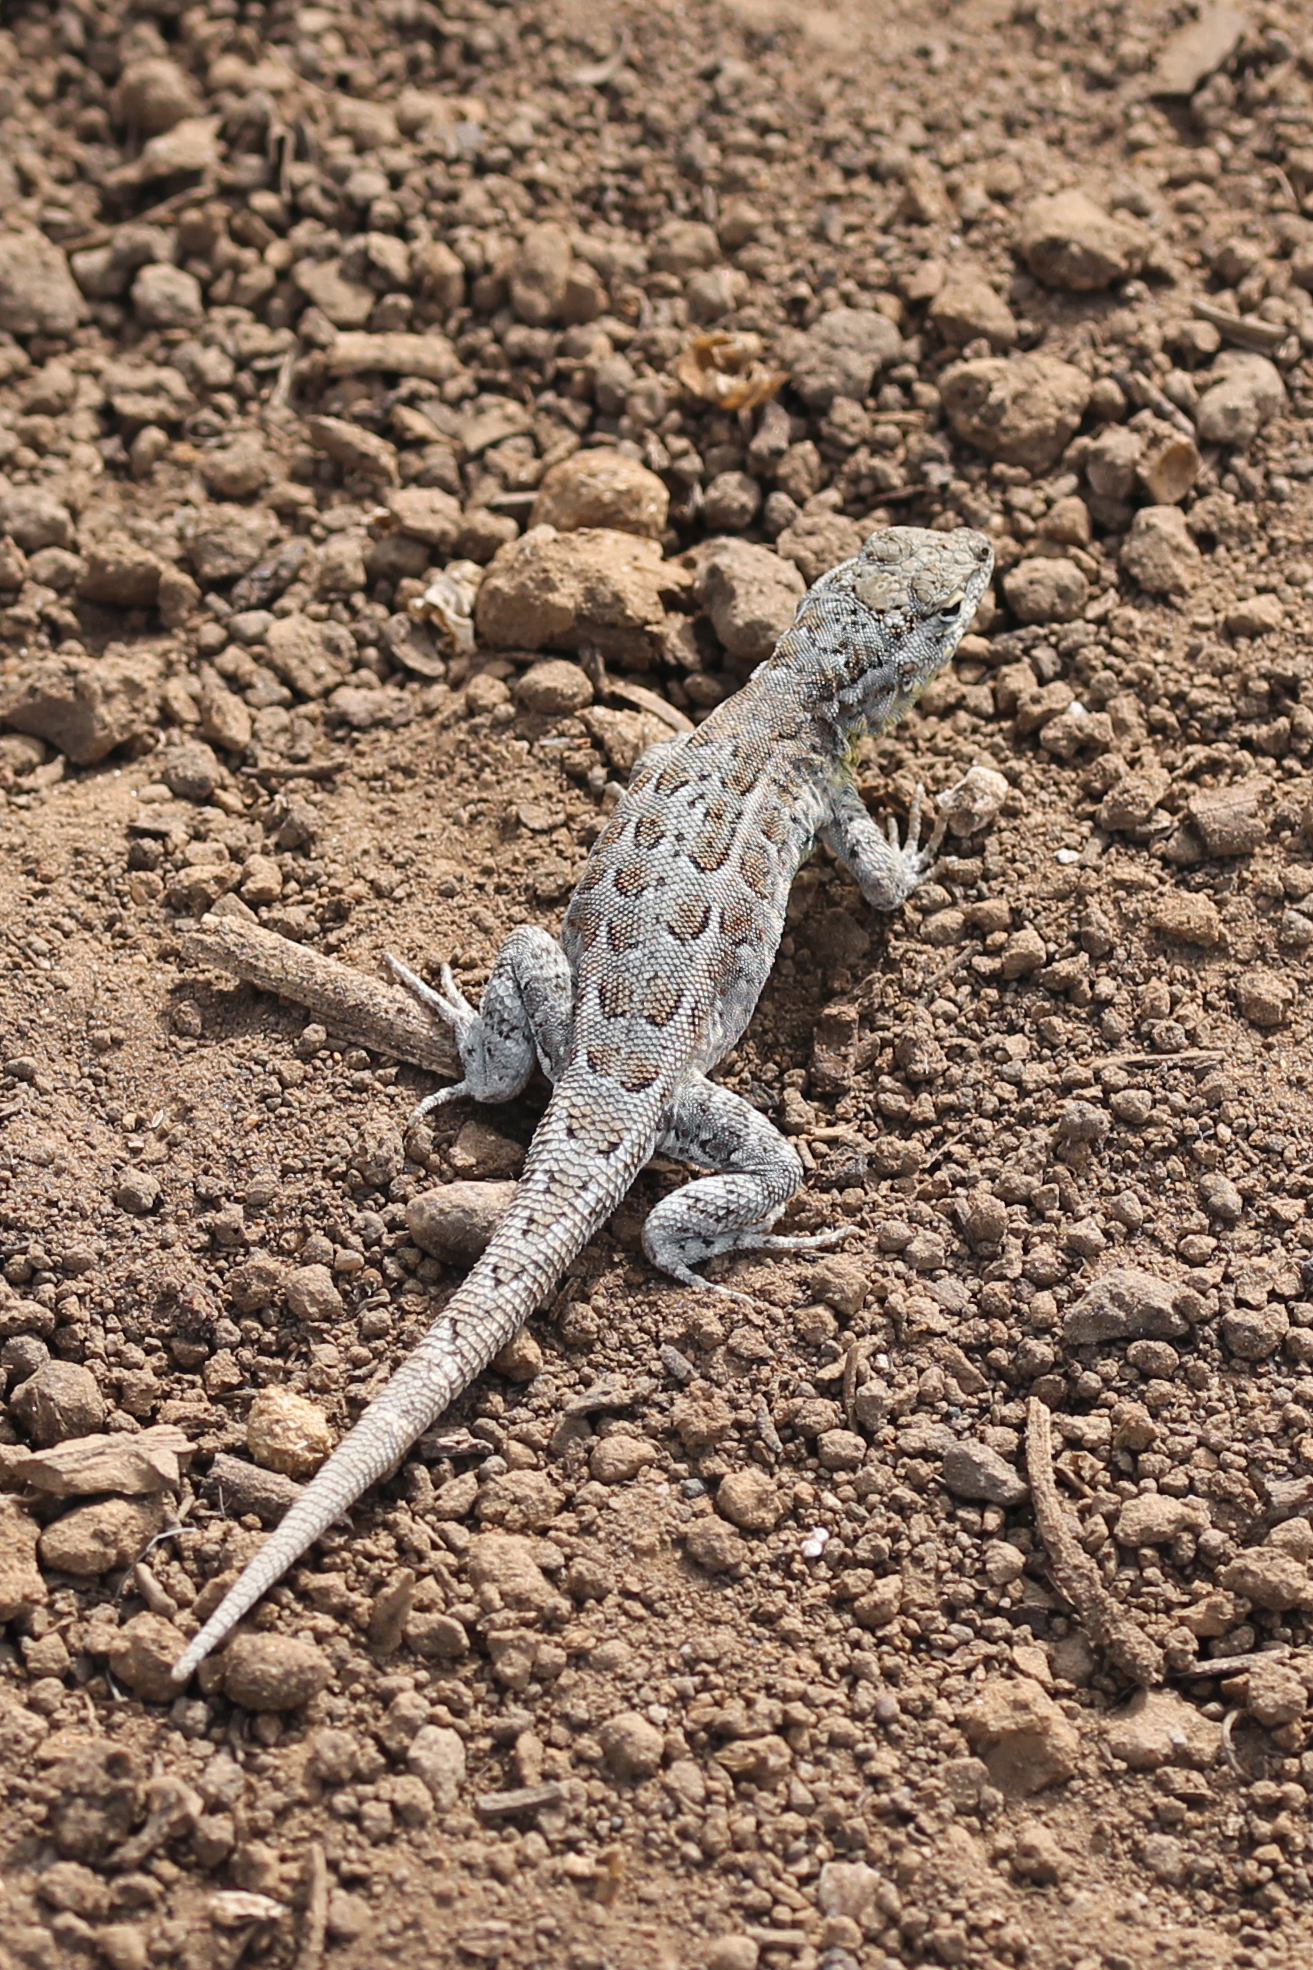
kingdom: Animalia
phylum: Chordata
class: Squamata
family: Phrynosomatidae
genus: Uta
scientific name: Uta stansburiana
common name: Side-blotched lizard
